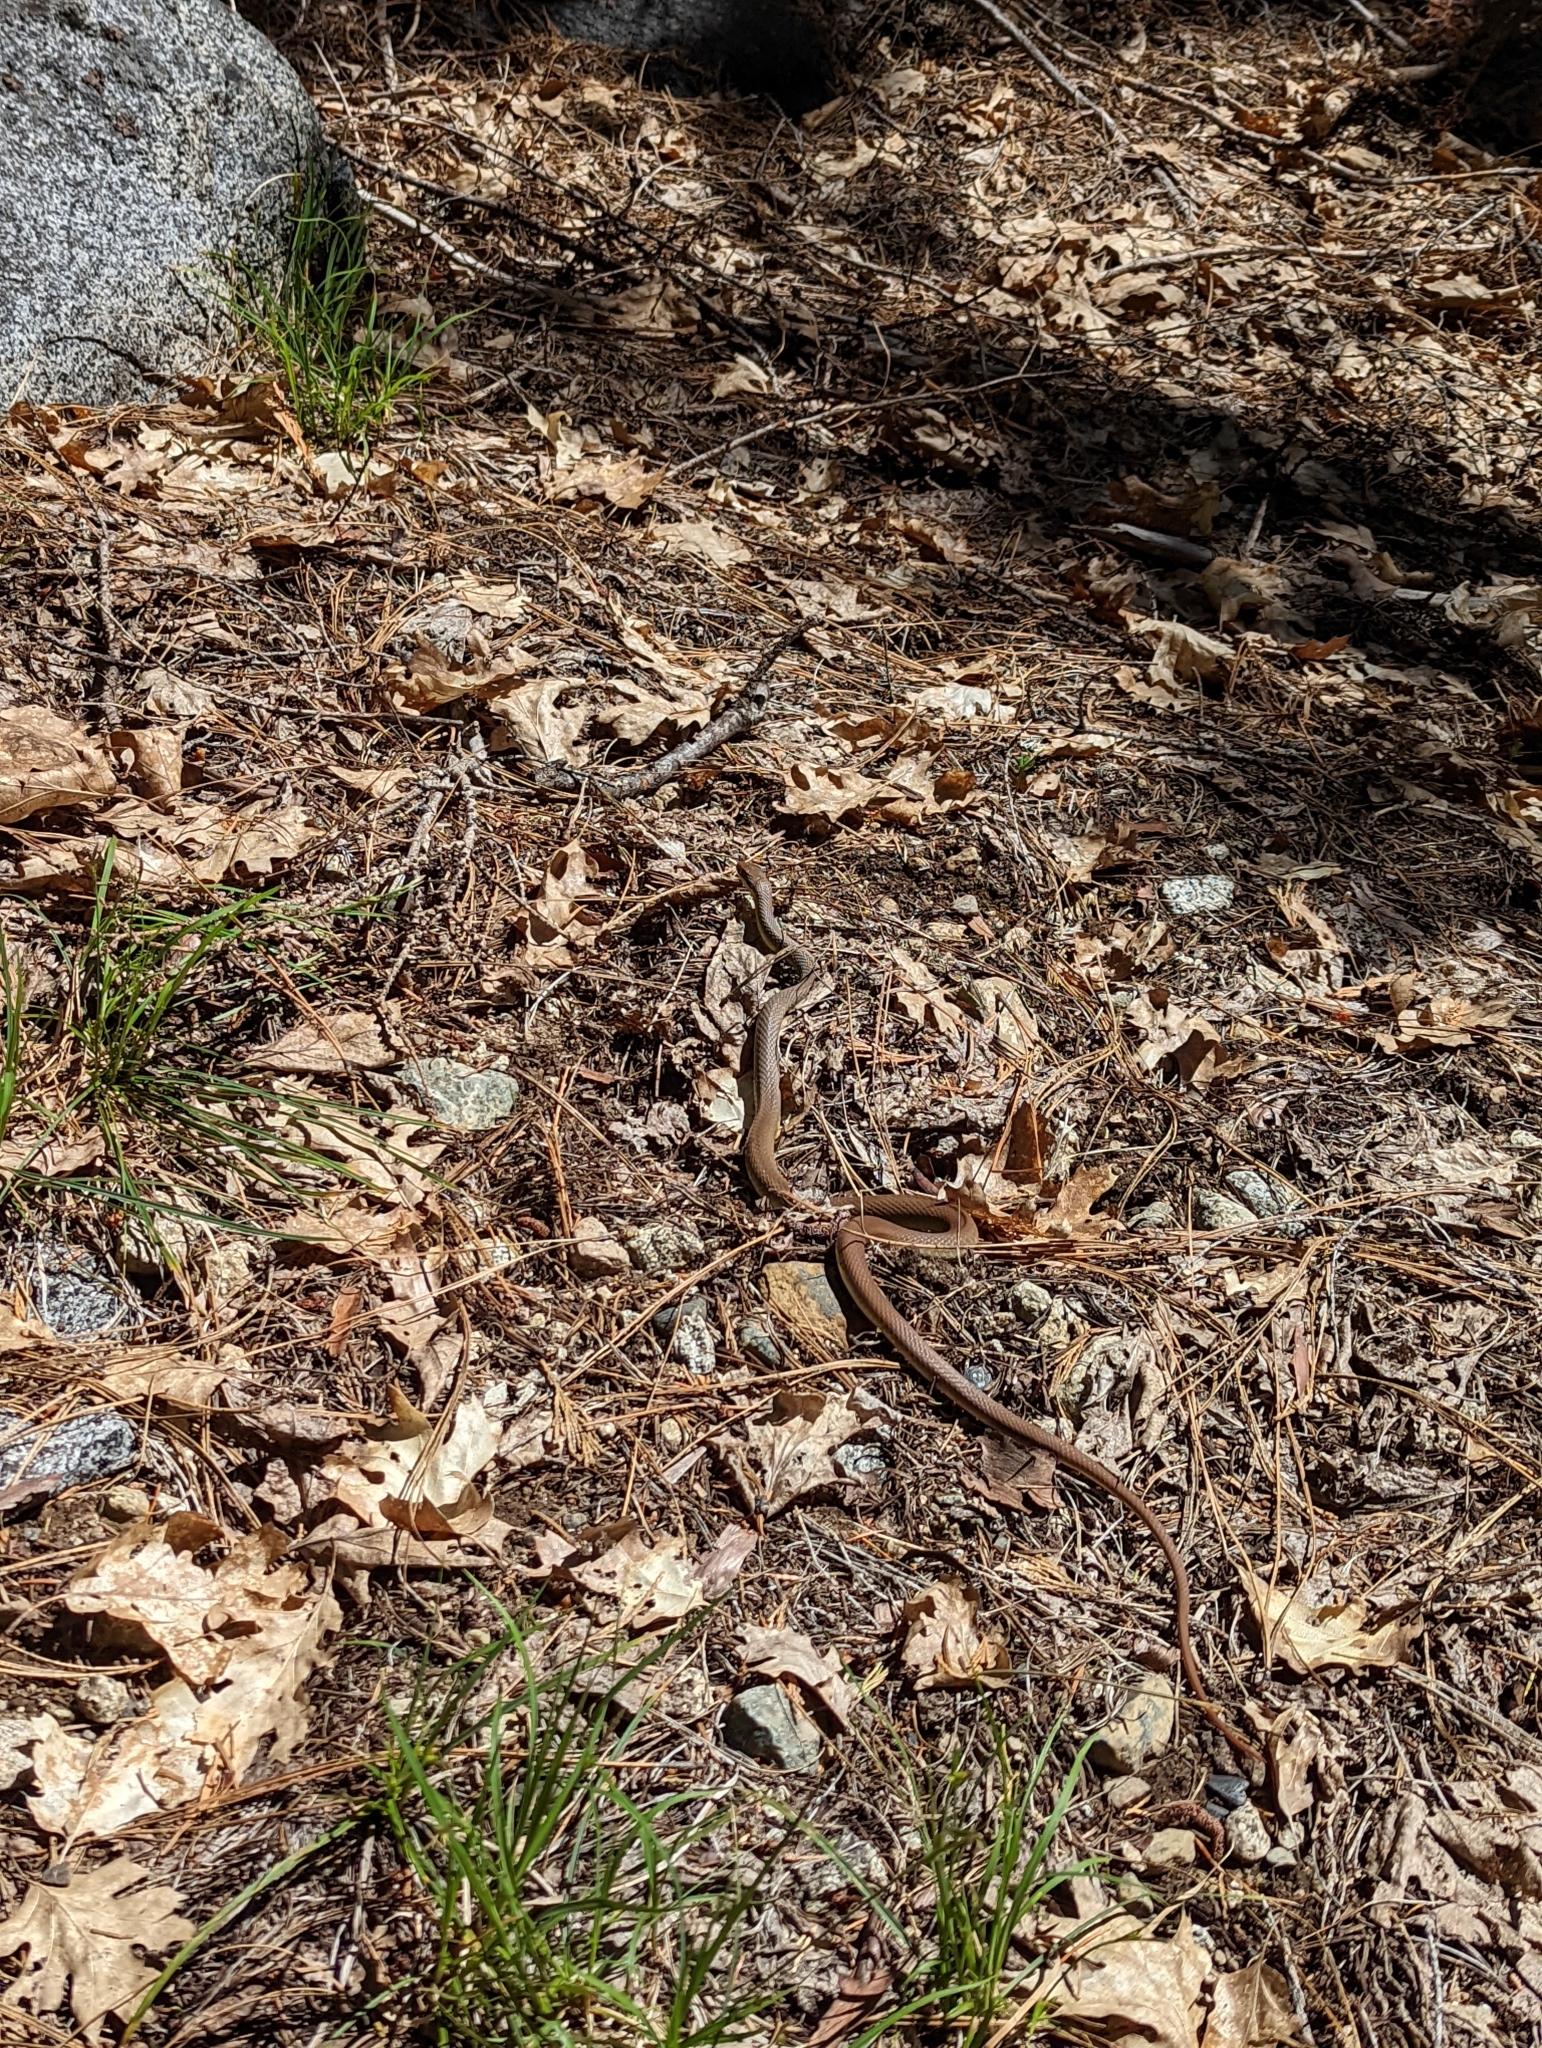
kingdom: Animalia
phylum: Chordata
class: Squamata
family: Colubridae
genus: Coluber
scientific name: Coluber constrictor
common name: Eastern racer
